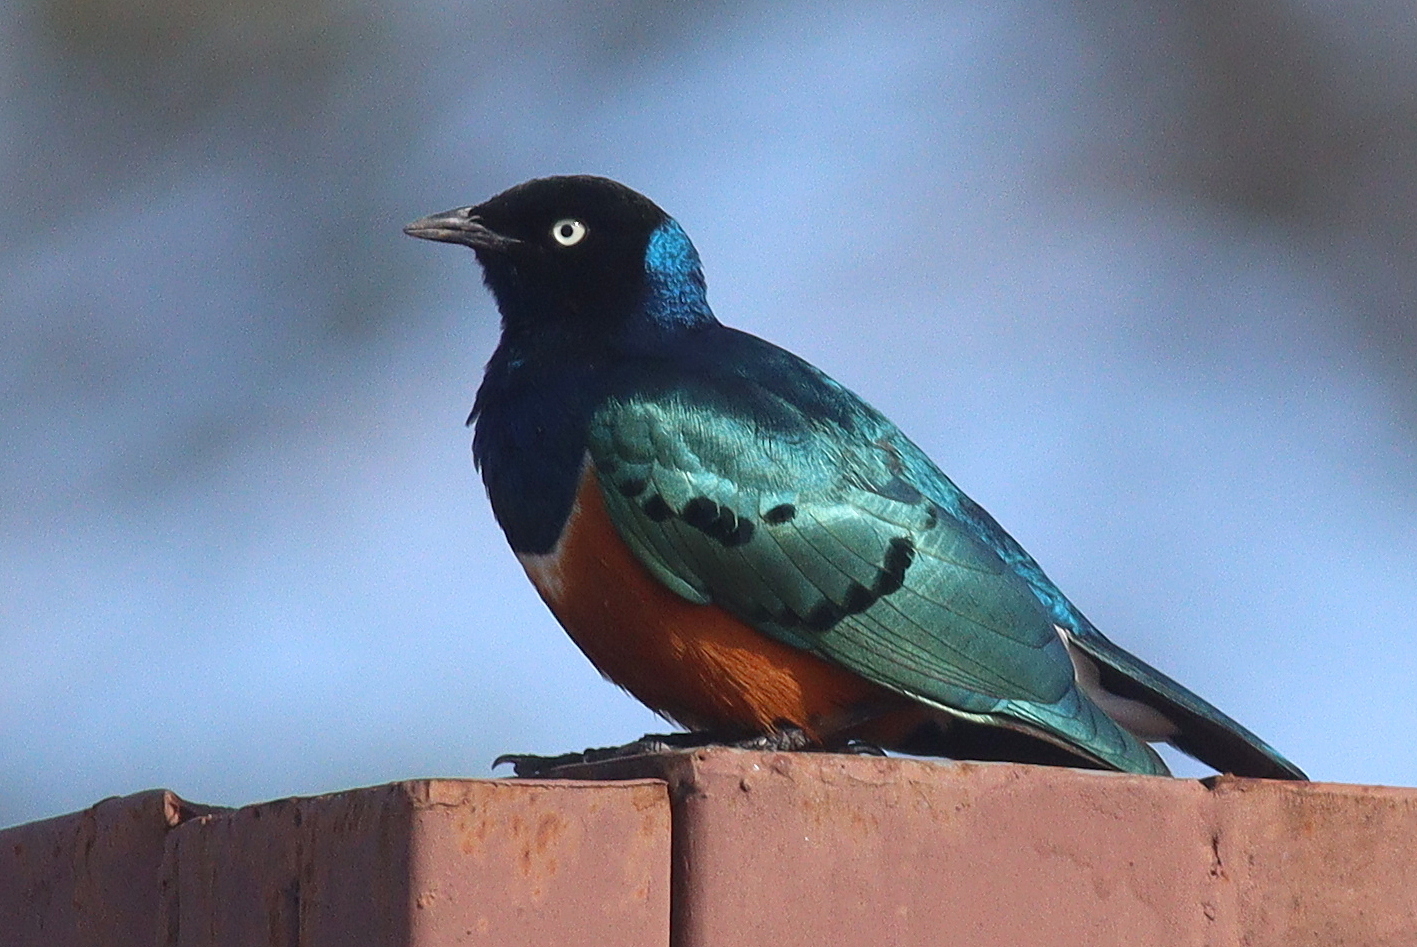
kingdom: Animalia
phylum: Chordata
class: Aves
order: Passeriformes
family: Sturnidae
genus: Lamprotornis
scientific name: Lamprotornis superbus
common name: Superb starling
